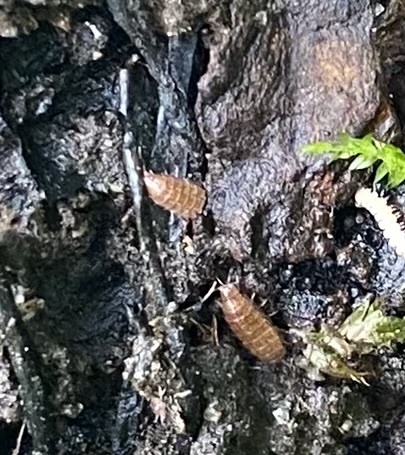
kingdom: Animalia
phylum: Arthropoda
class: Malacostraca
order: Isopoda
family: Trichoniscidae
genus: Trichoniscus
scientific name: Trichoniscus
